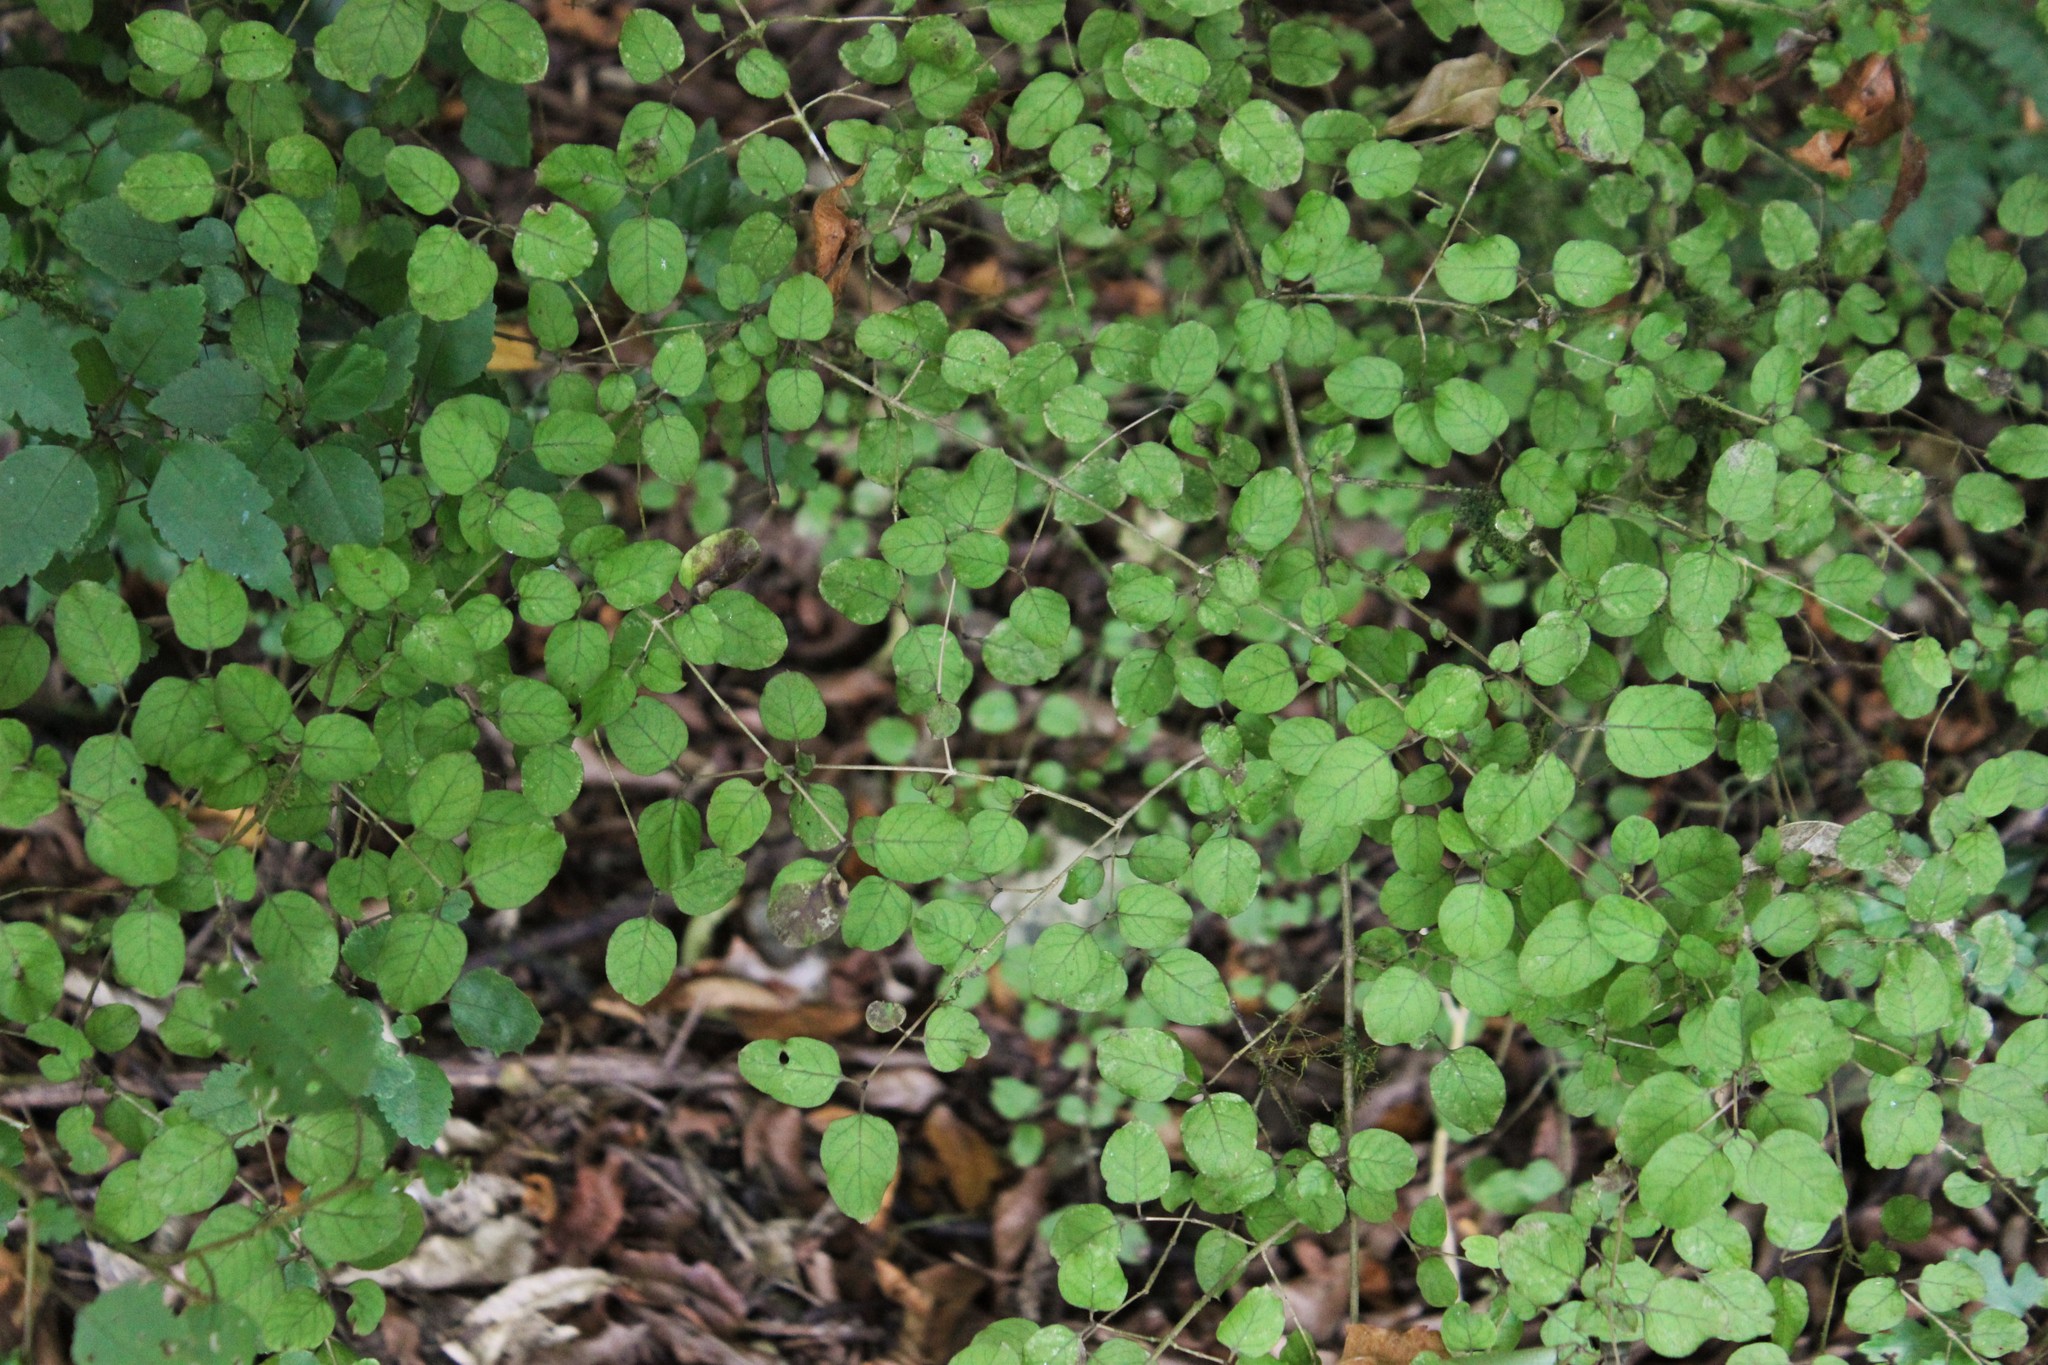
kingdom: Plantae
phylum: Tracheophyta
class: Magnoliopsida
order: Gentianales
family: Rubiaceae
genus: Coprosma
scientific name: Coprosma rotundifolia
